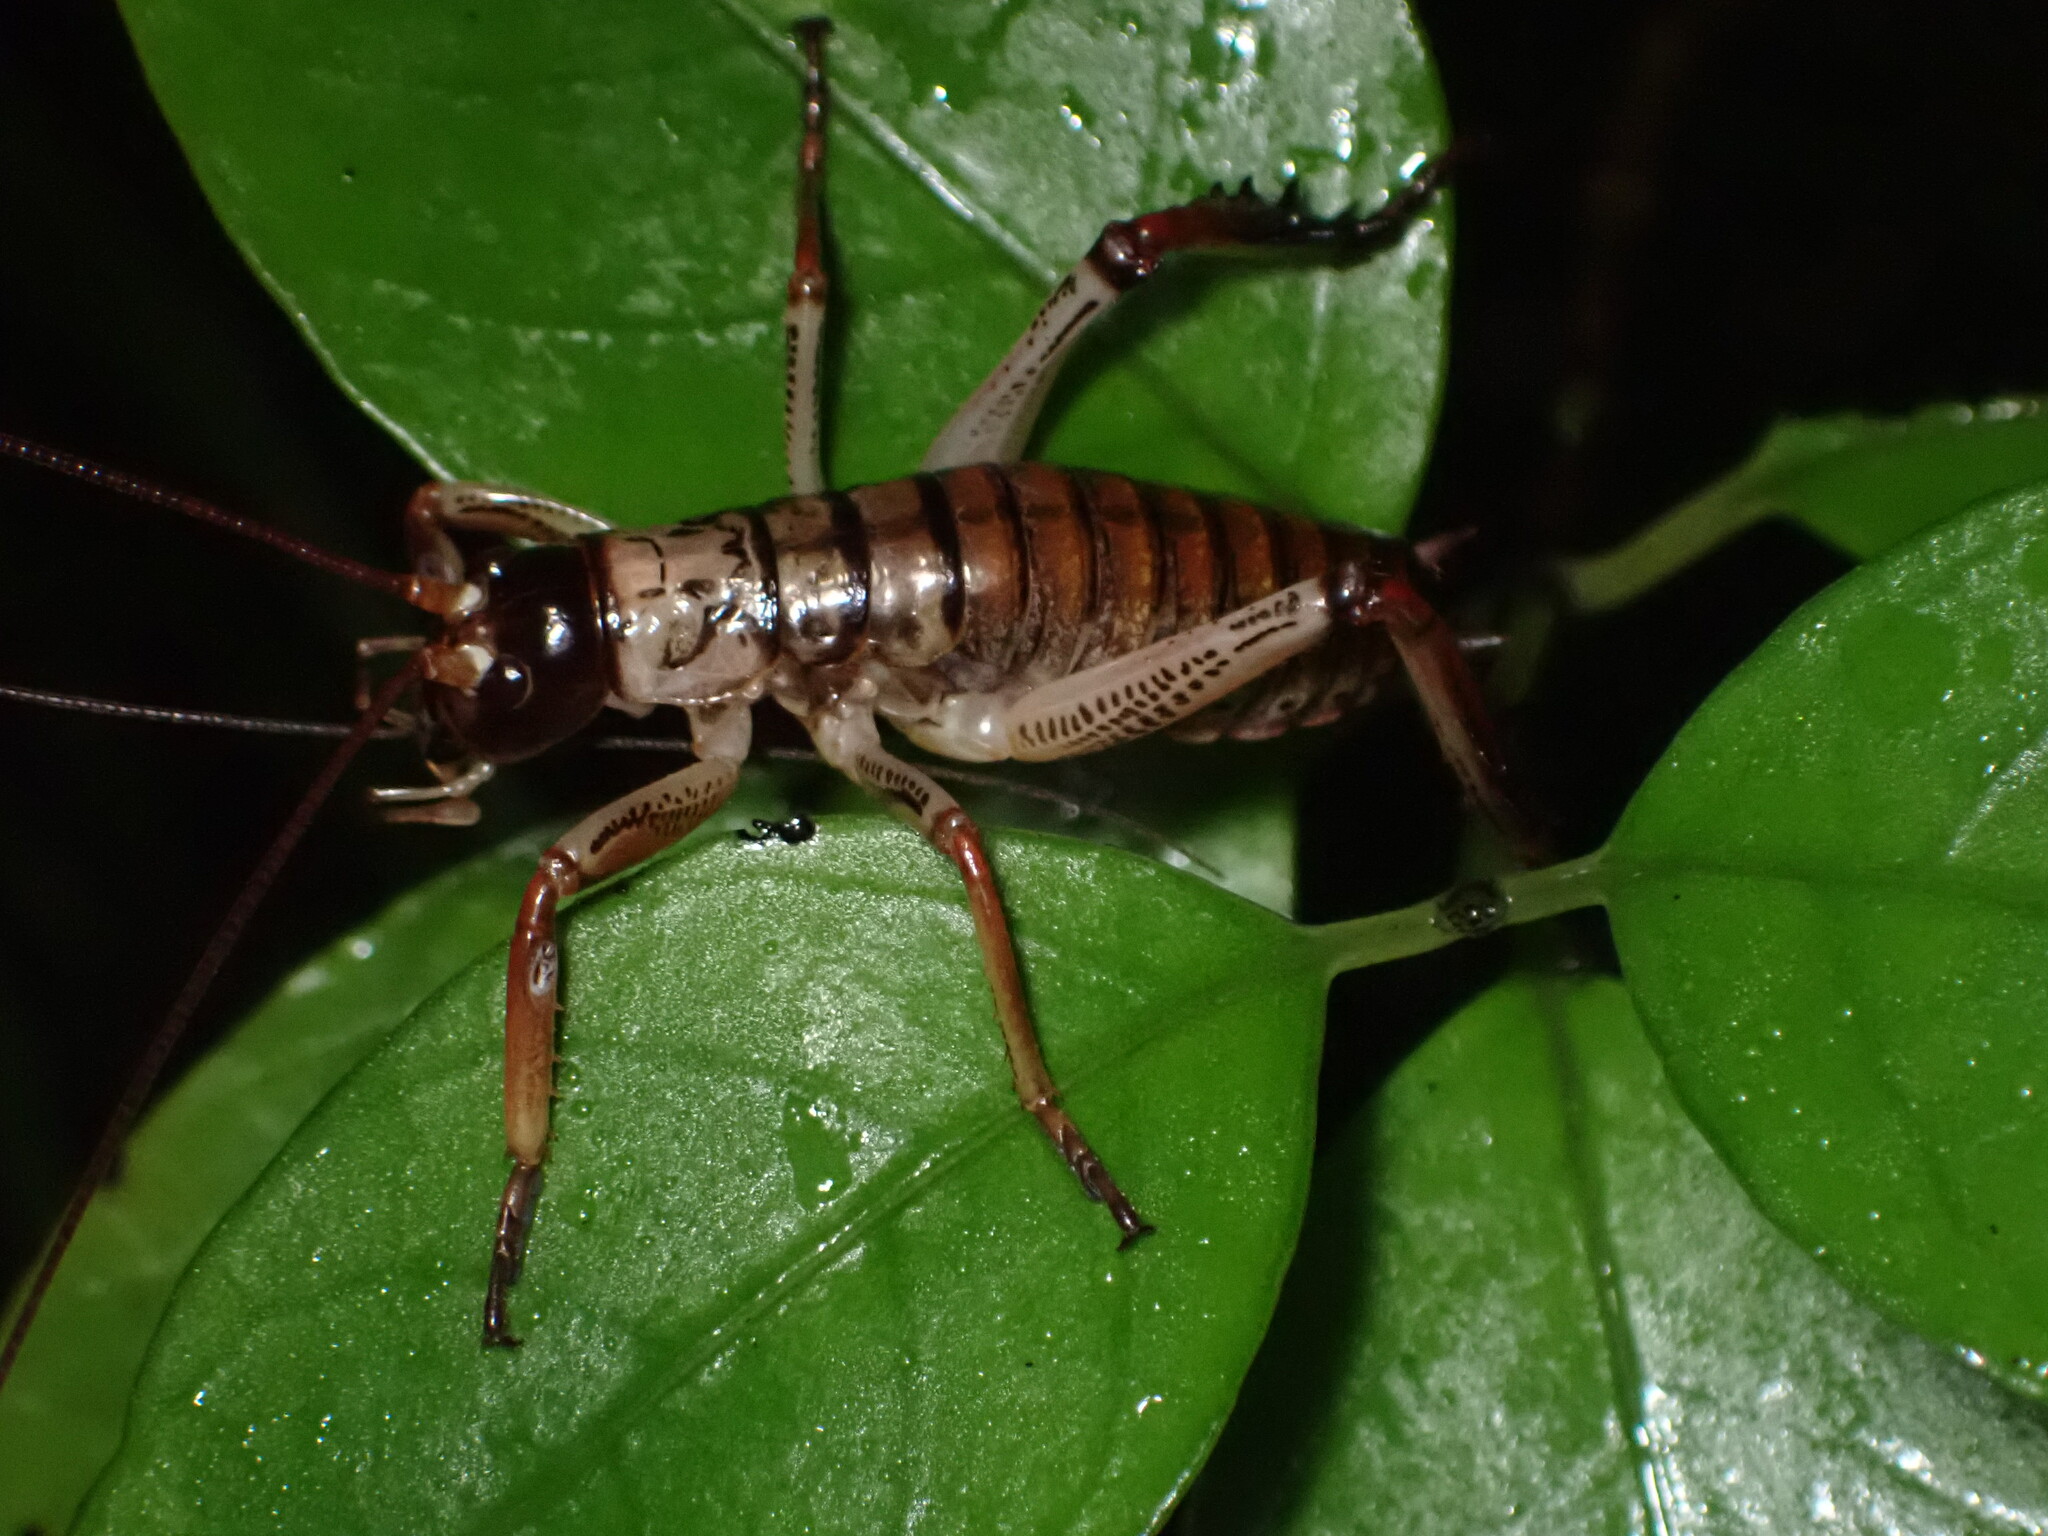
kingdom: Animalia
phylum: Arthropoda
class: Insecta
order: Orthoptera
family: Anostostomatidae
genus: Hemideina
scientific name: Hemideina thoracica
